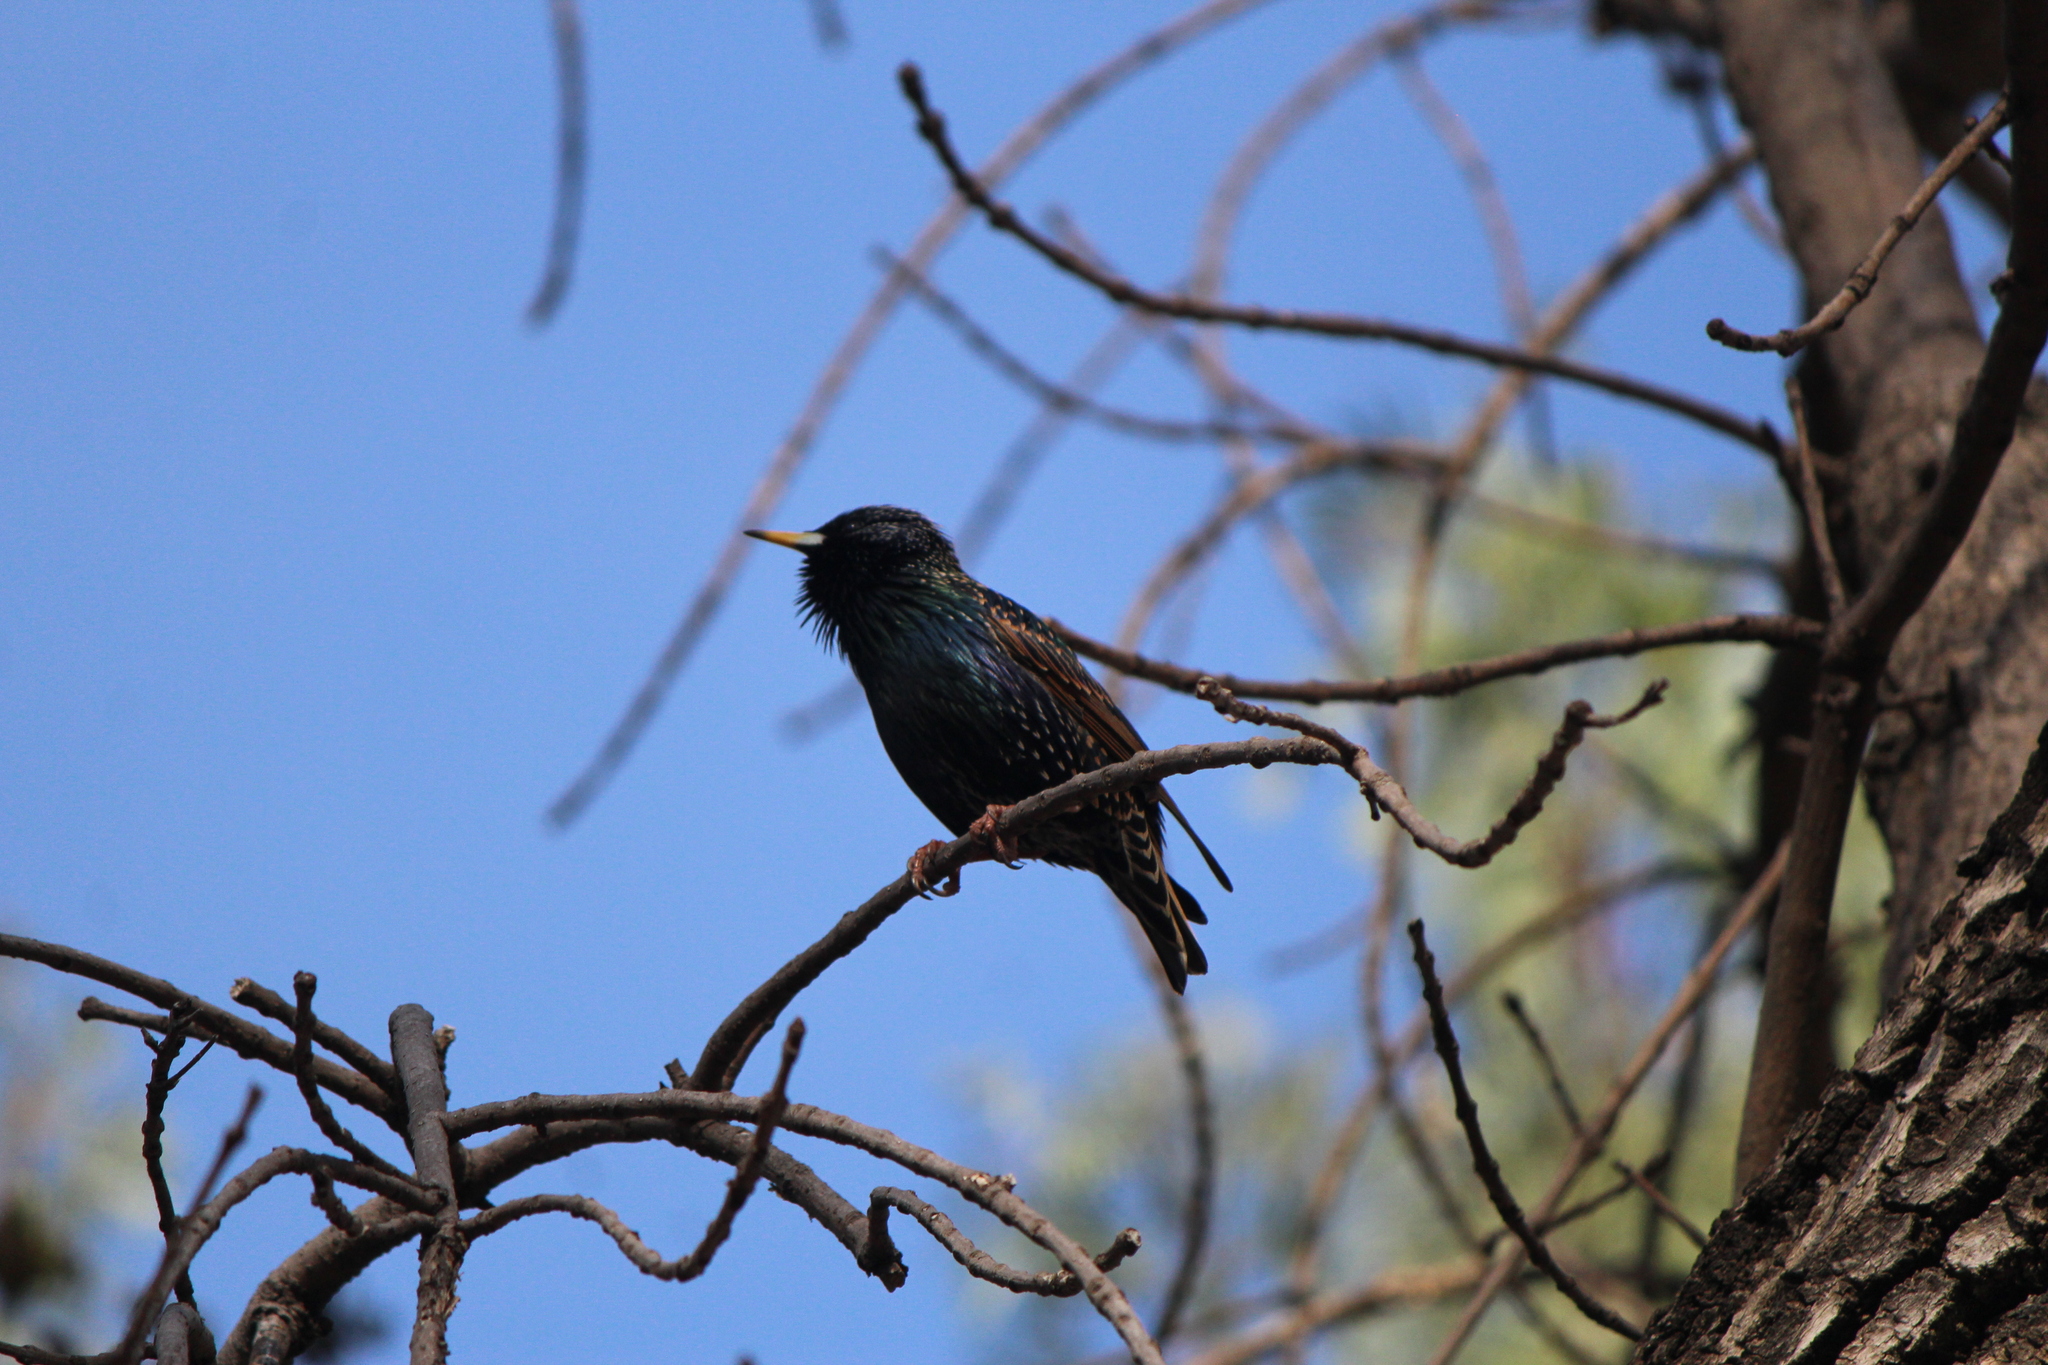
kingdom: Animalia
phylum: Chordata
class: Aves
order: Passeriformes
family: Sturnidae
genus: Sturnus
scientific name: Sturnus vulgaris
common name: Common starling
